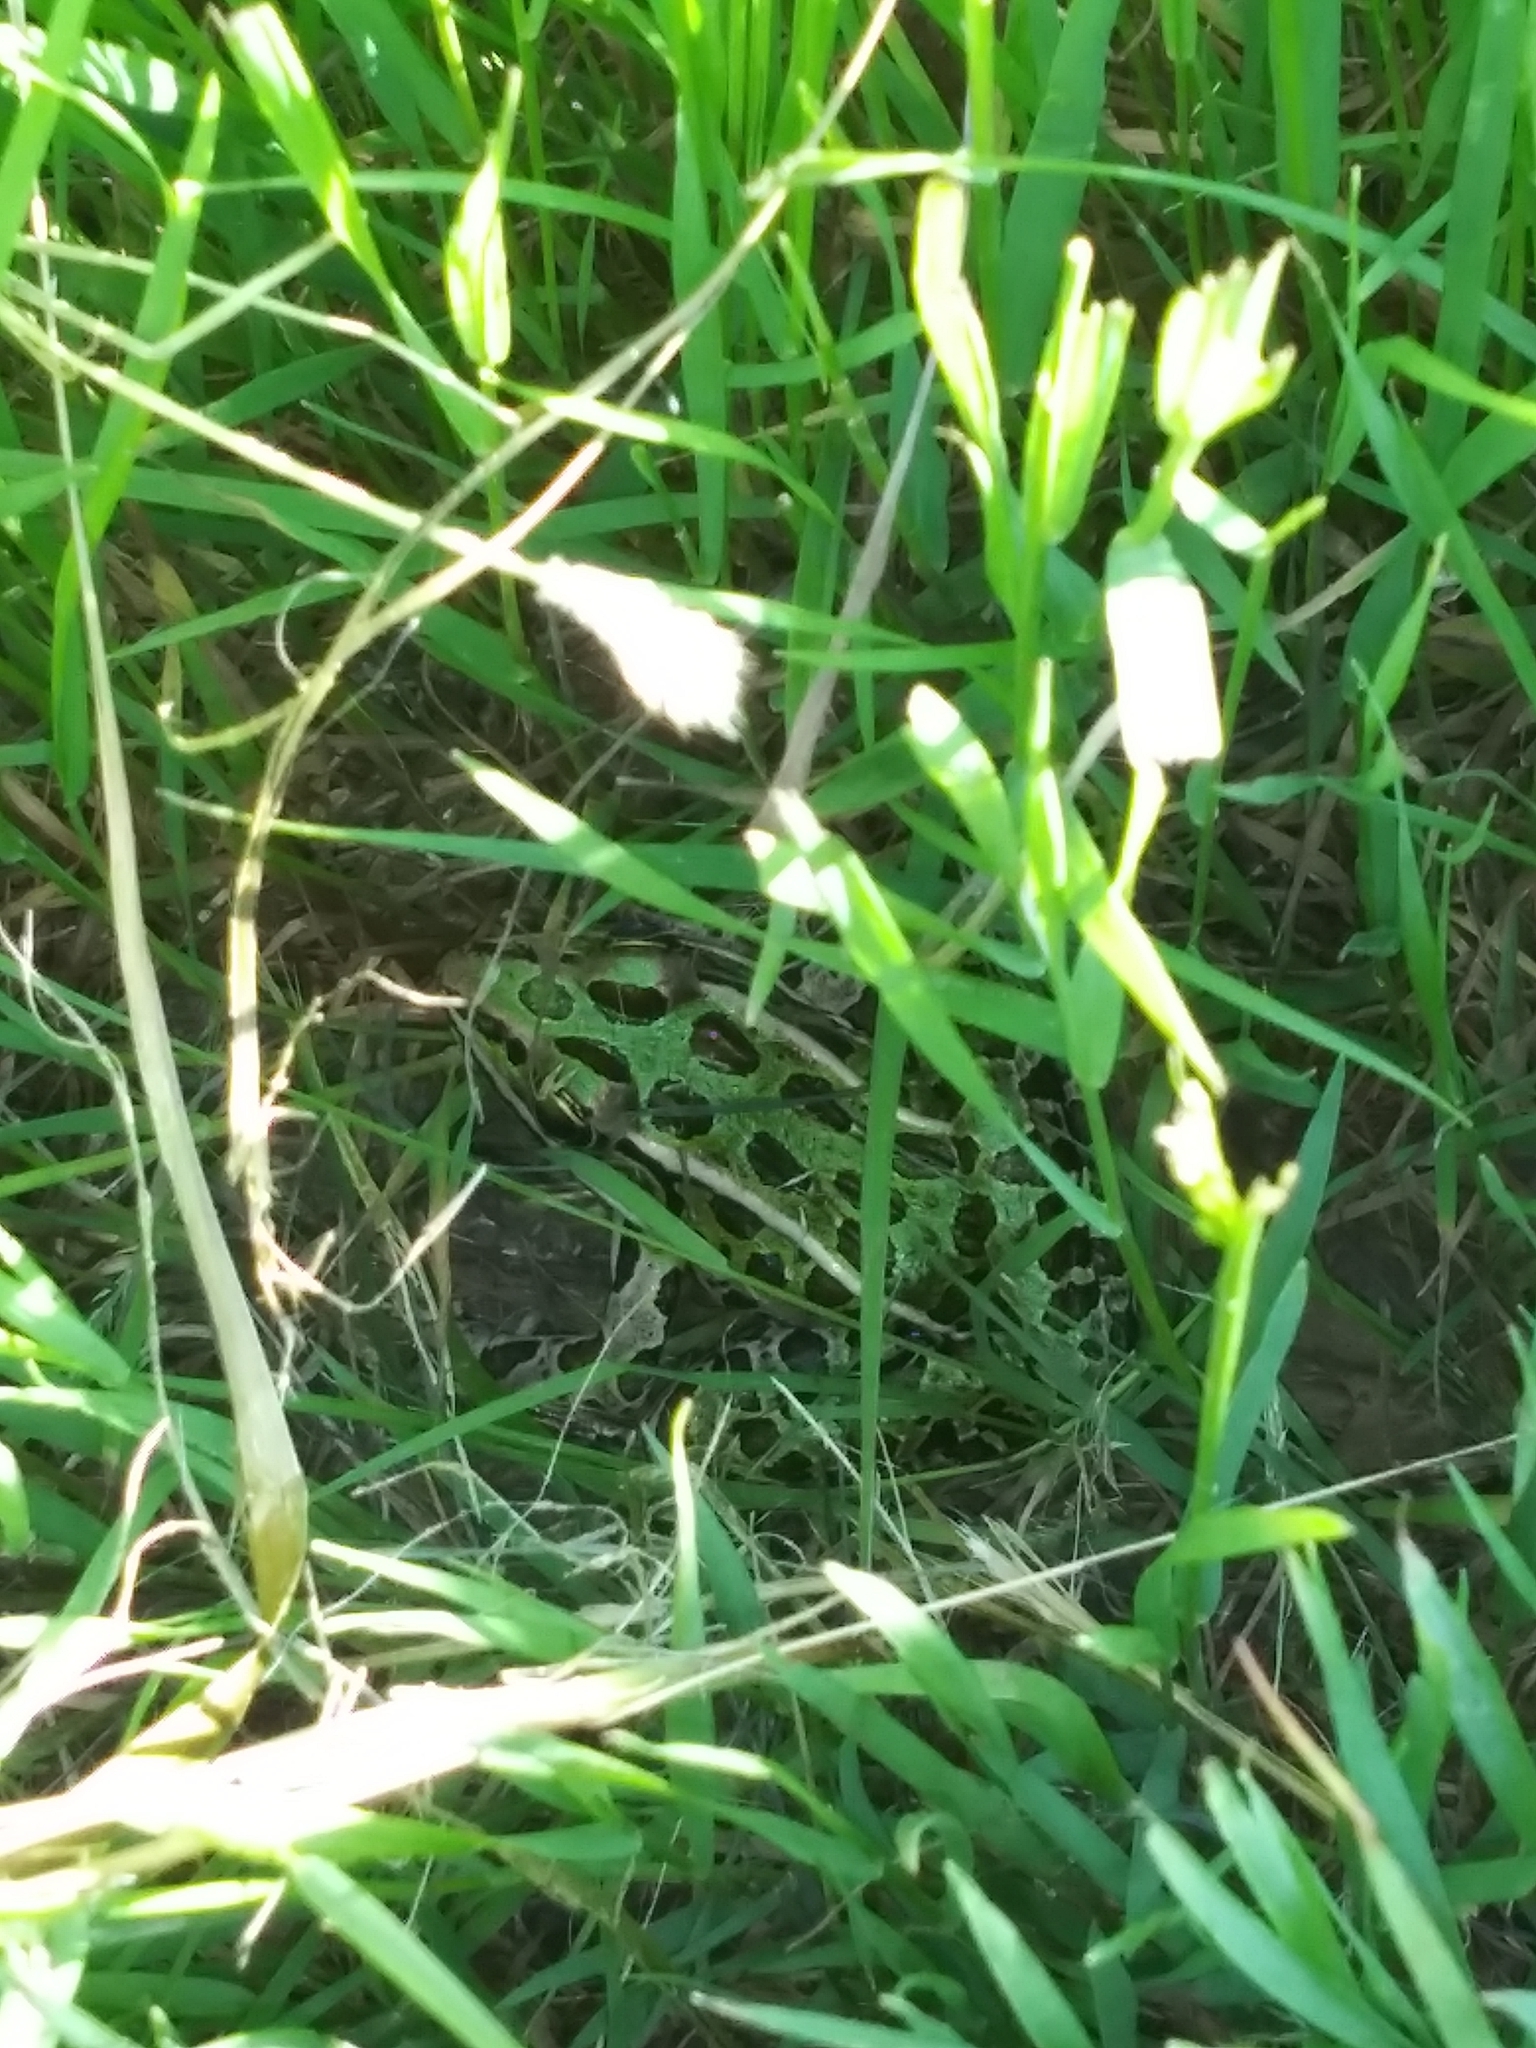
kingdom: Animalia
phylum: Chordata
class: Amphibia
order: Anura
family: Ranidae
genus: Lithobates
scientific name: Lithobates pipiens
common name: Northern leopard frog
